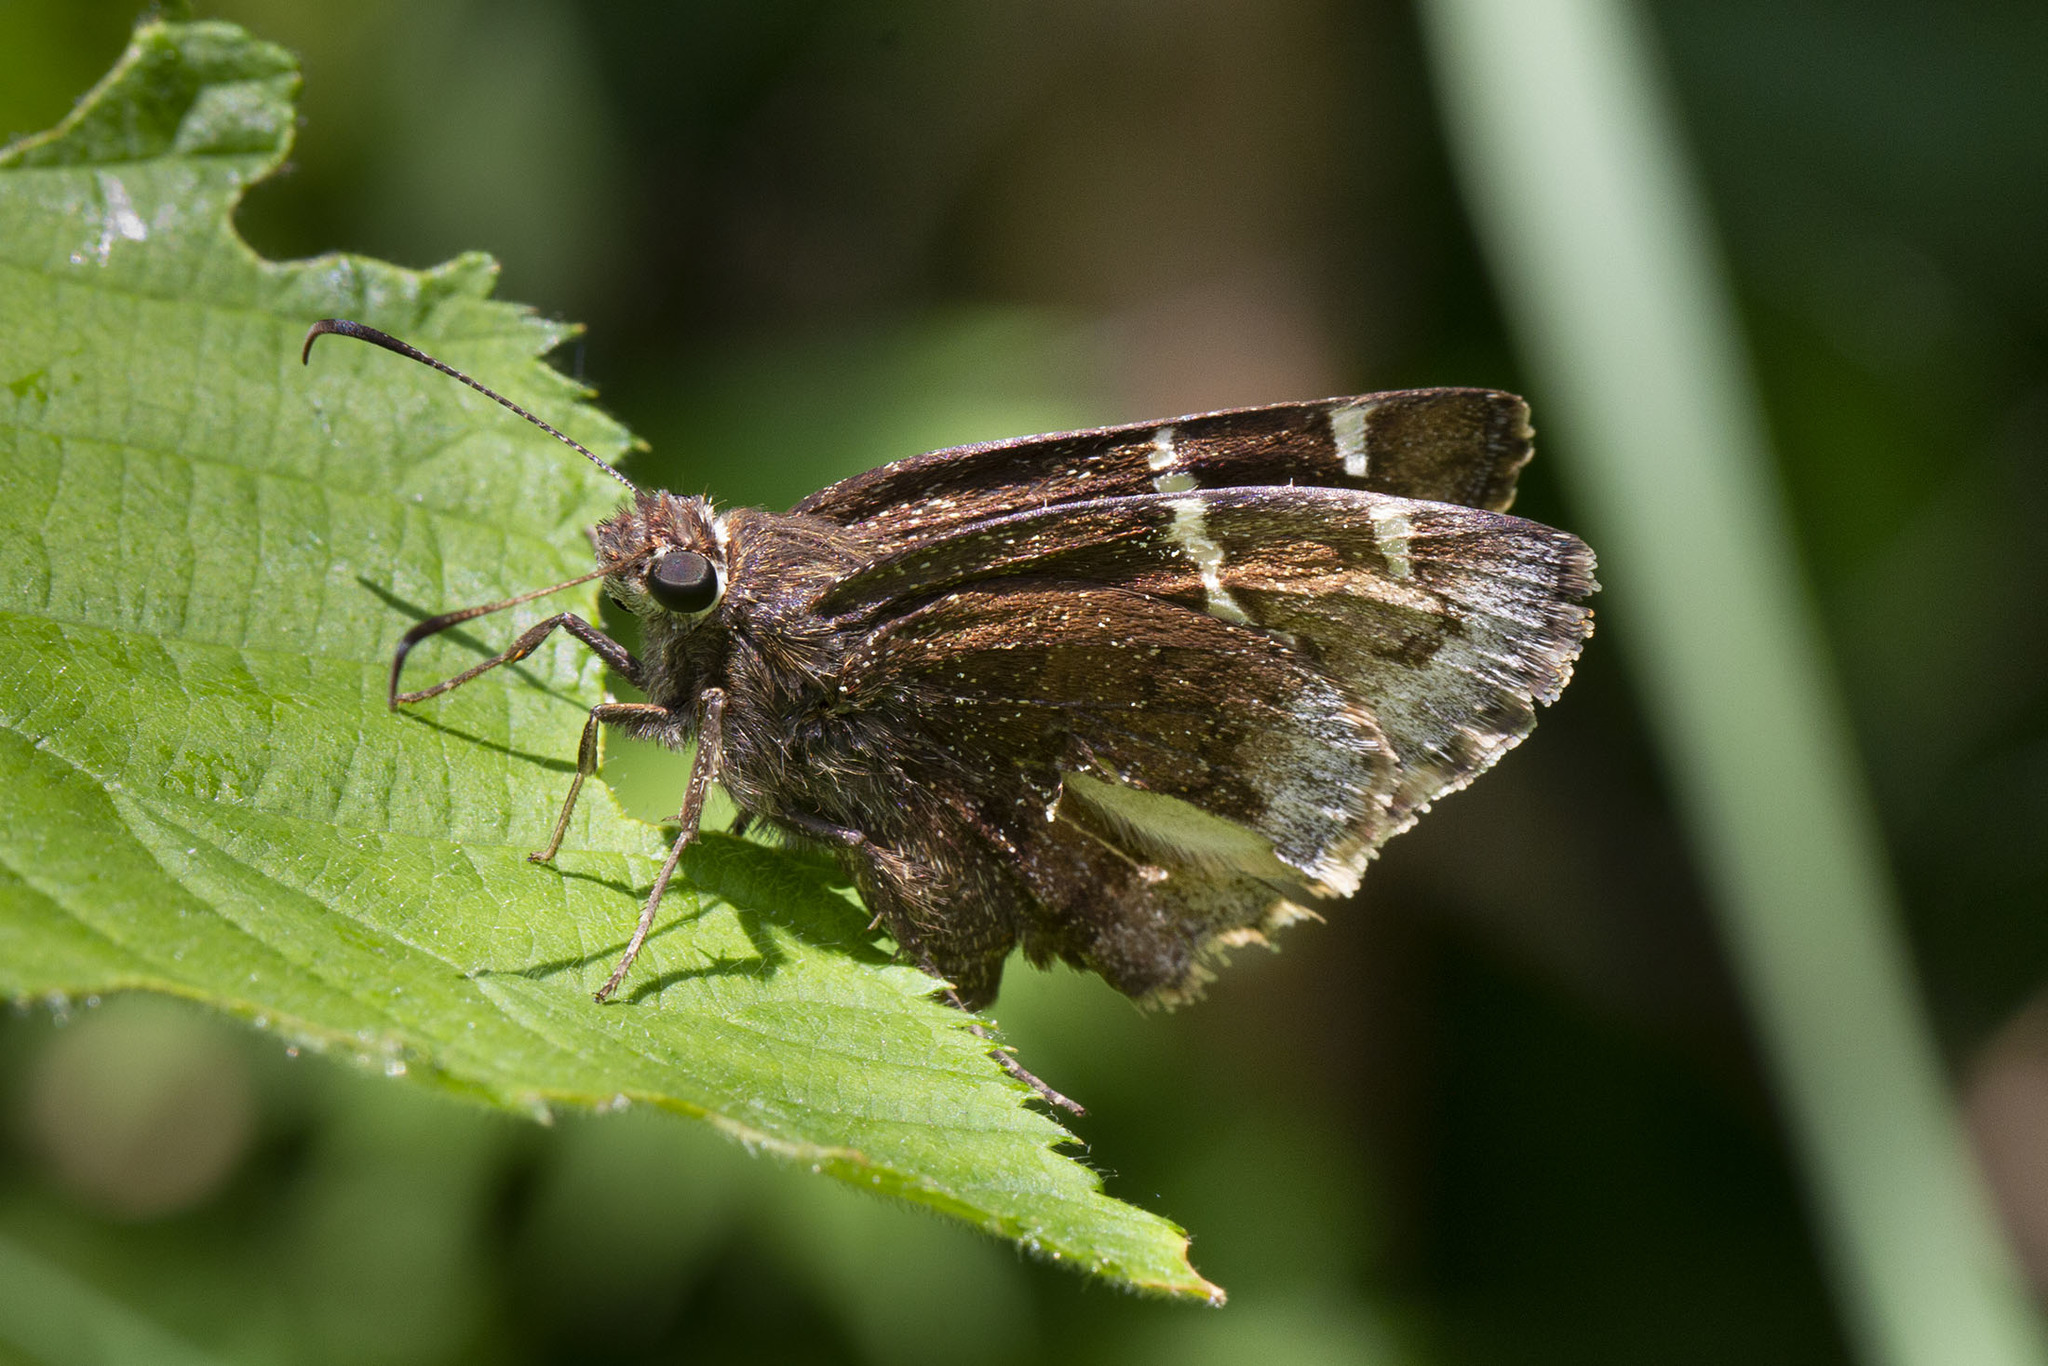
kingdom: Animalia
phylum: Arthropoda
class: Insecta
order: Lepidoptera
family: Hesperiidae
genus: Thorybes
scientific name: Thorybes daunus
